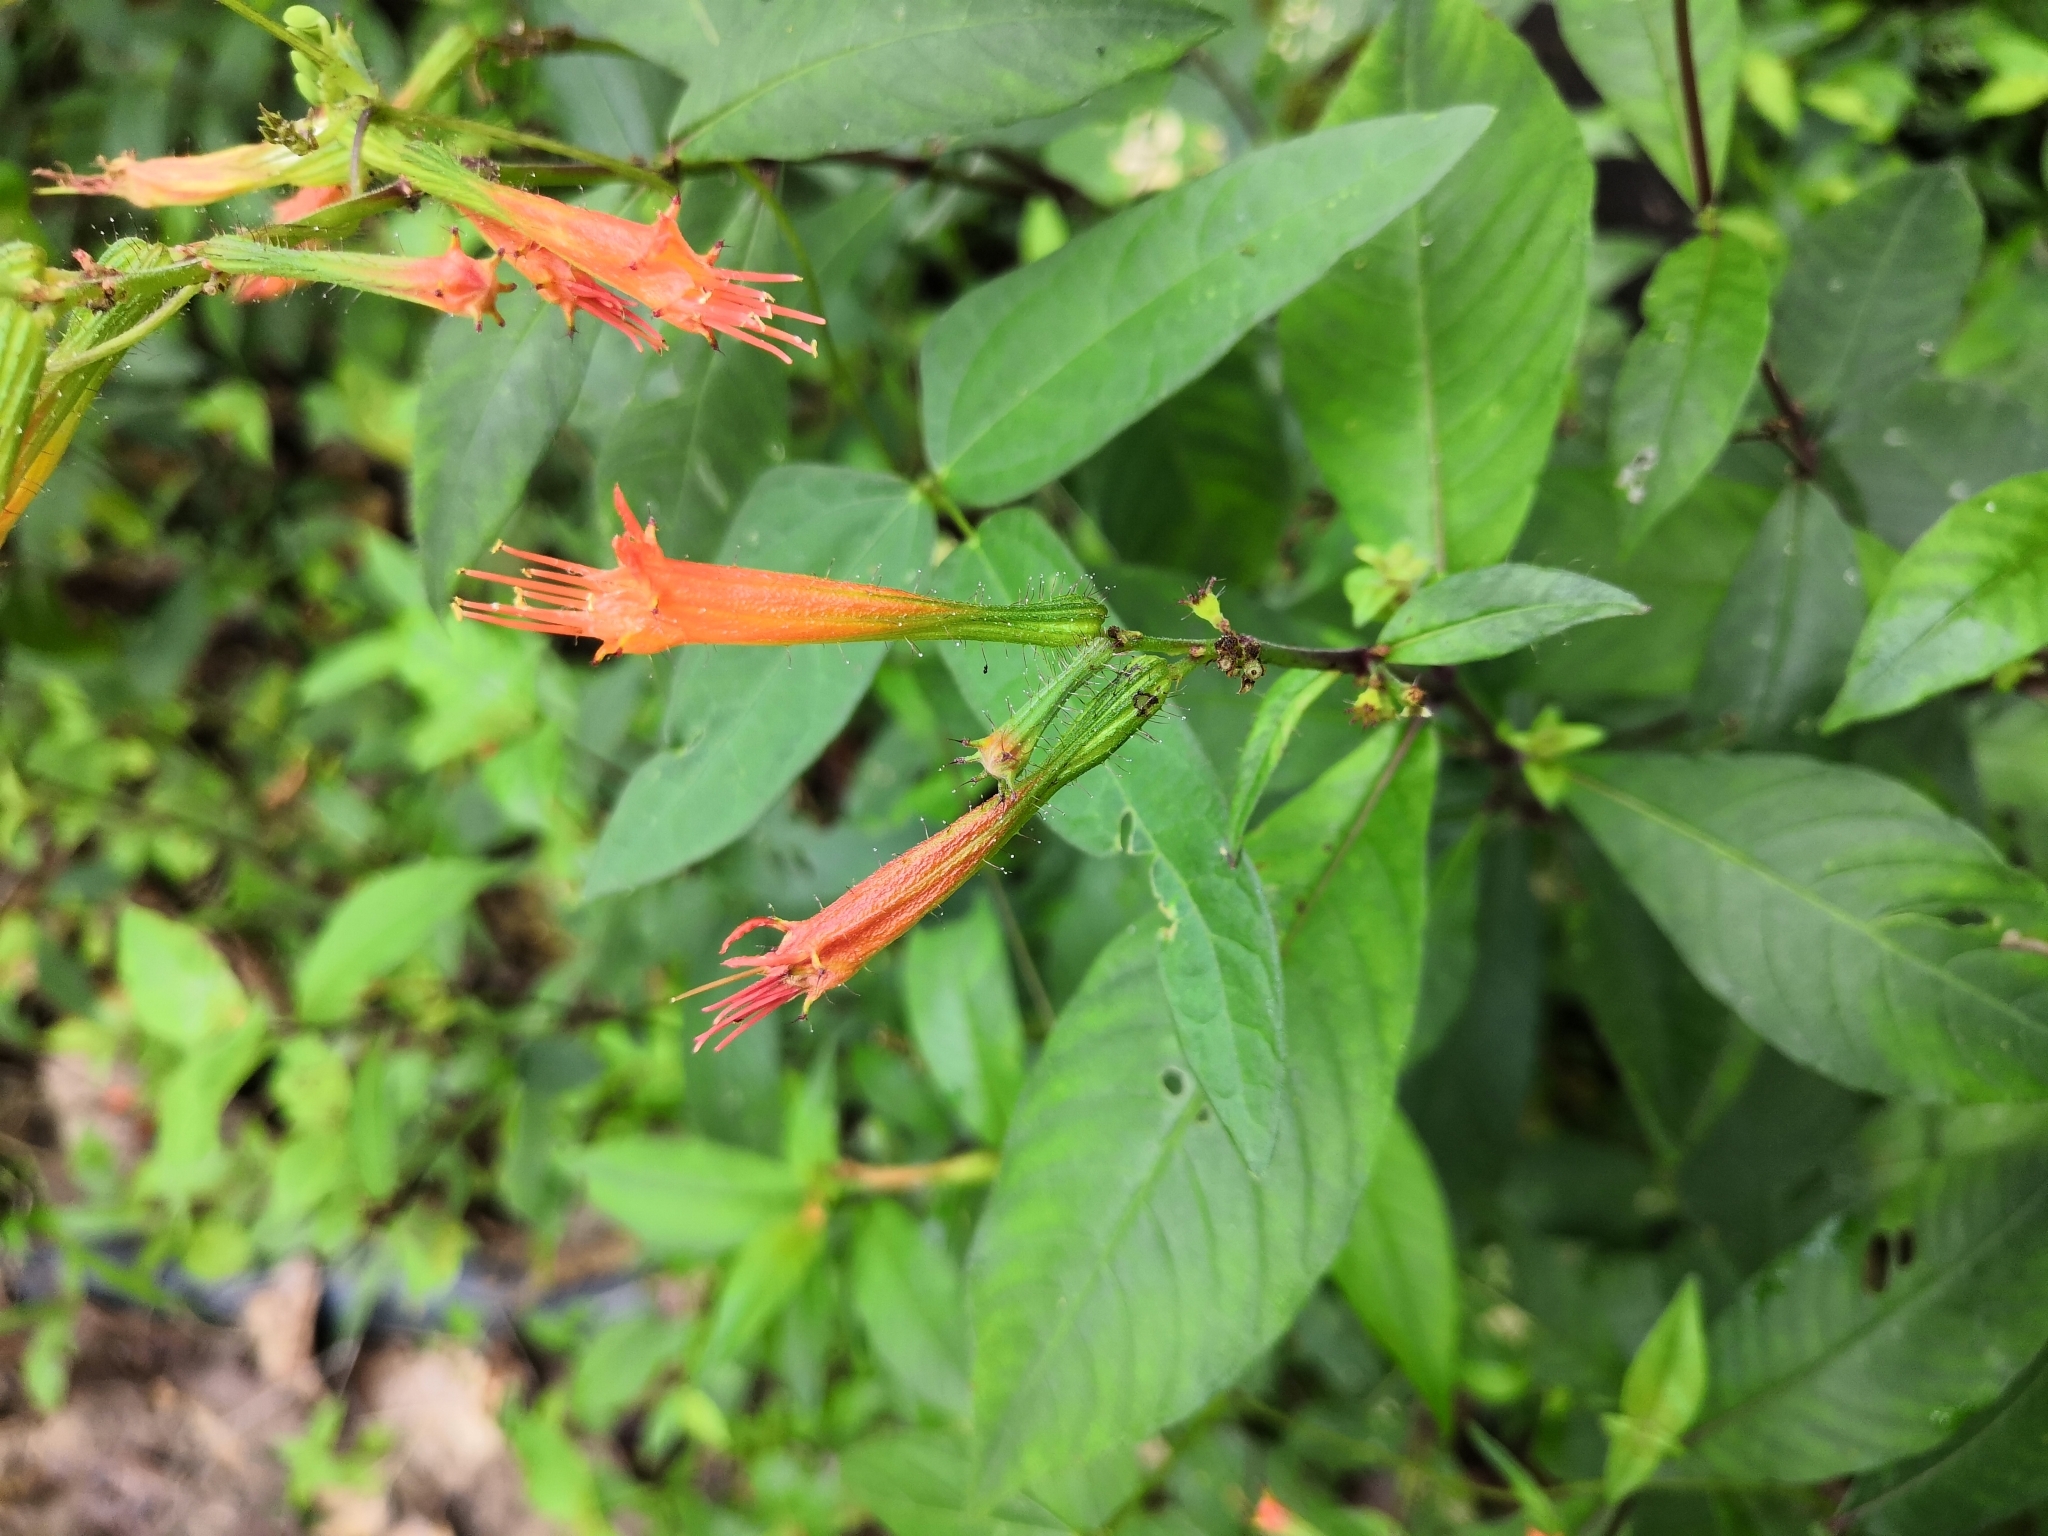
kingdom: Plantae
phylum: Tracheophyta
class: Magnoliopsida
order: Myrtales
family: Lythraceae
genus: Cuphea
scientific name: Cuphea appendiculata
